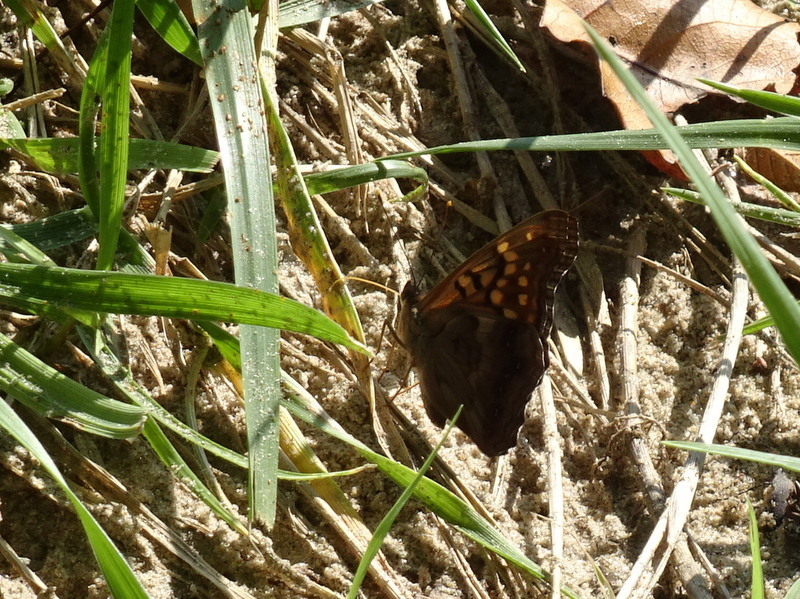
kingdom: Animalia
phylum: Arthropoda
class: Insecta
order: Lepidoptera
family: Nymphalidae
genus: Asterocampa
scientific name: Asterocampa clyton
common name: Tawny emperor
